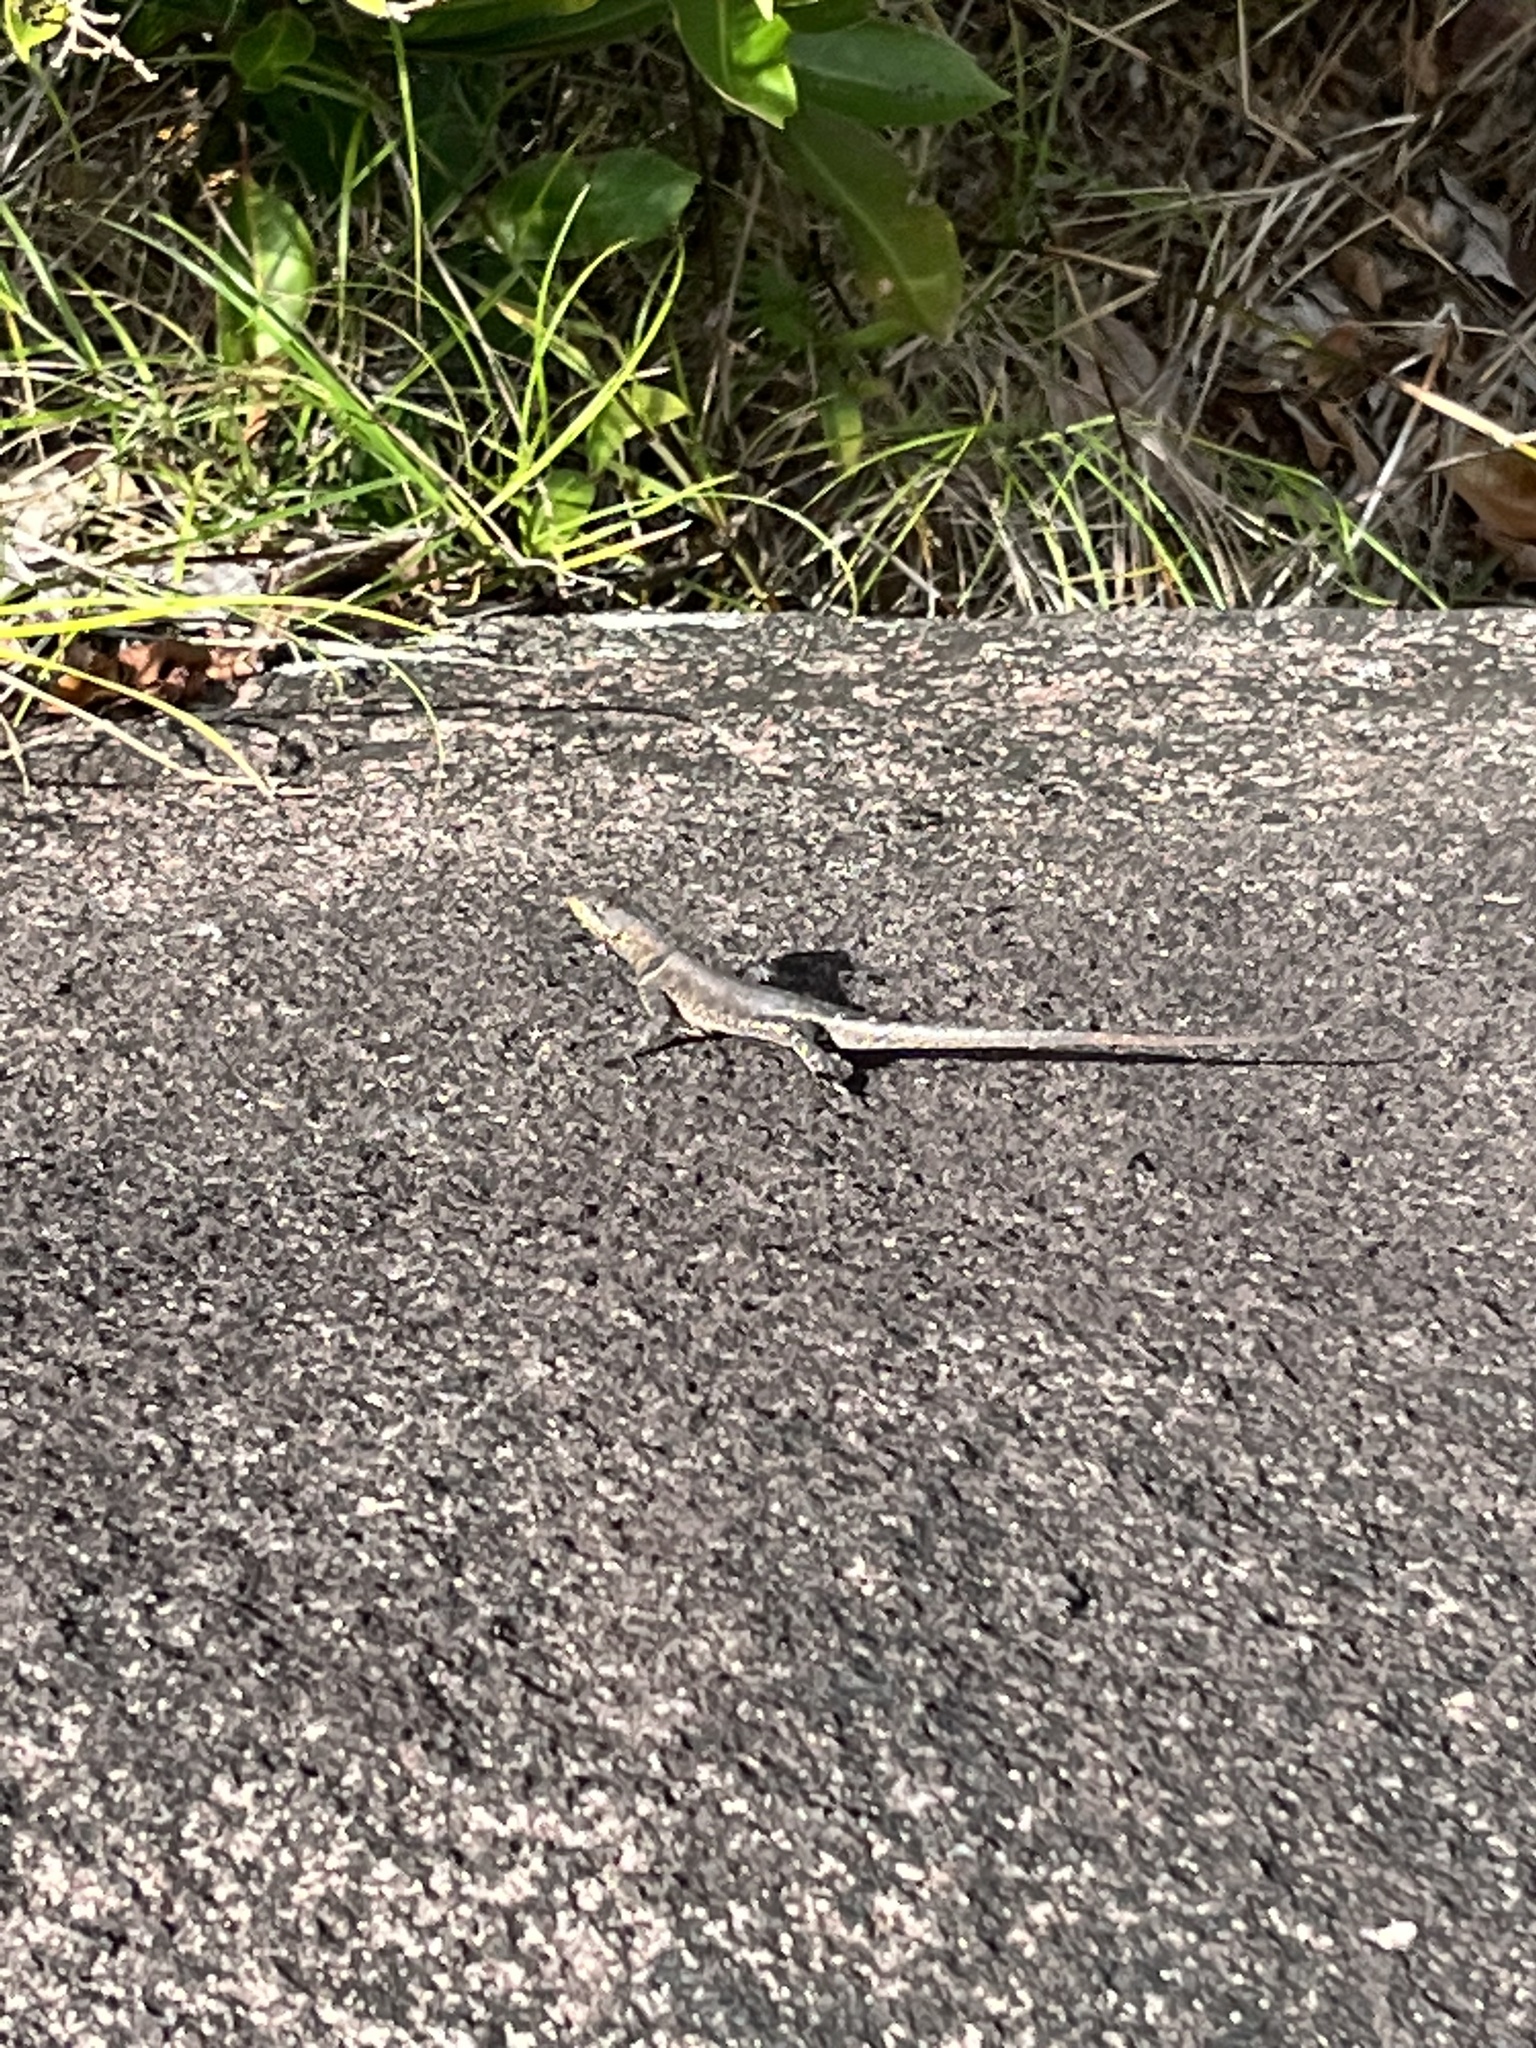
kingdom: Animalia
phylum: Chordata
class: Squamata
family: Tropiduridae
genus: Tropidurus
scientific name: Tropidurus hispidus
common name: Peters' lava lizard
